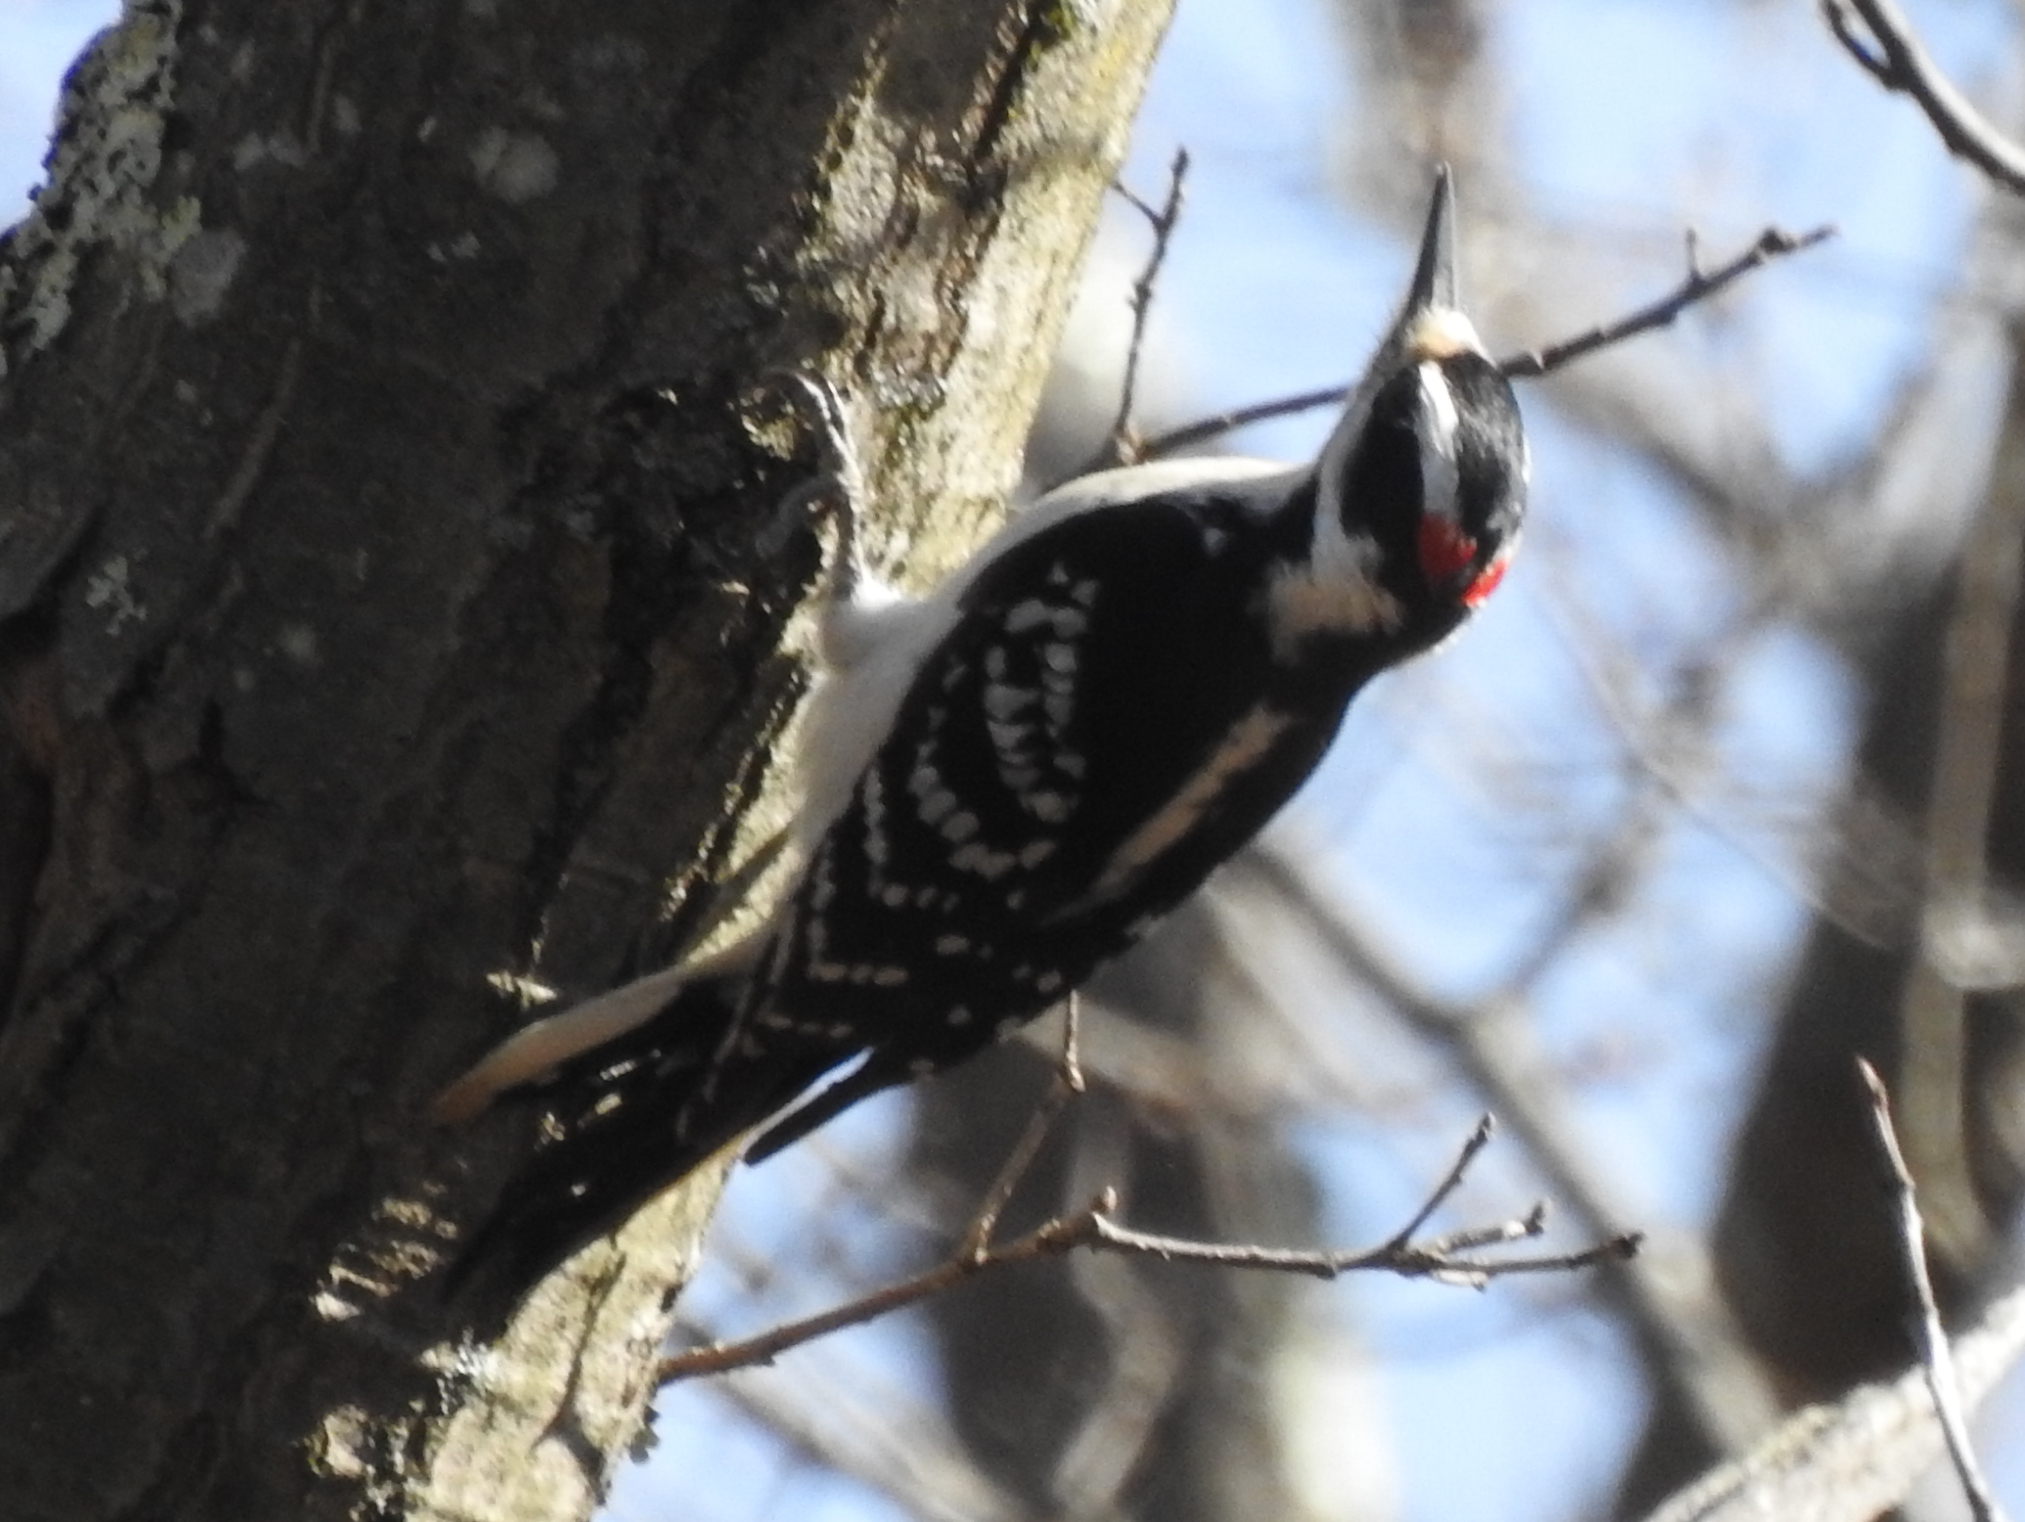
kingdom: Animalia
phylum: Chordata
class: Aves
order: Piciformes
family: Picidae
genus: Leuconotopicus
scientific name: Leuconotopicus villosus
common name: Hairy woodpecker
